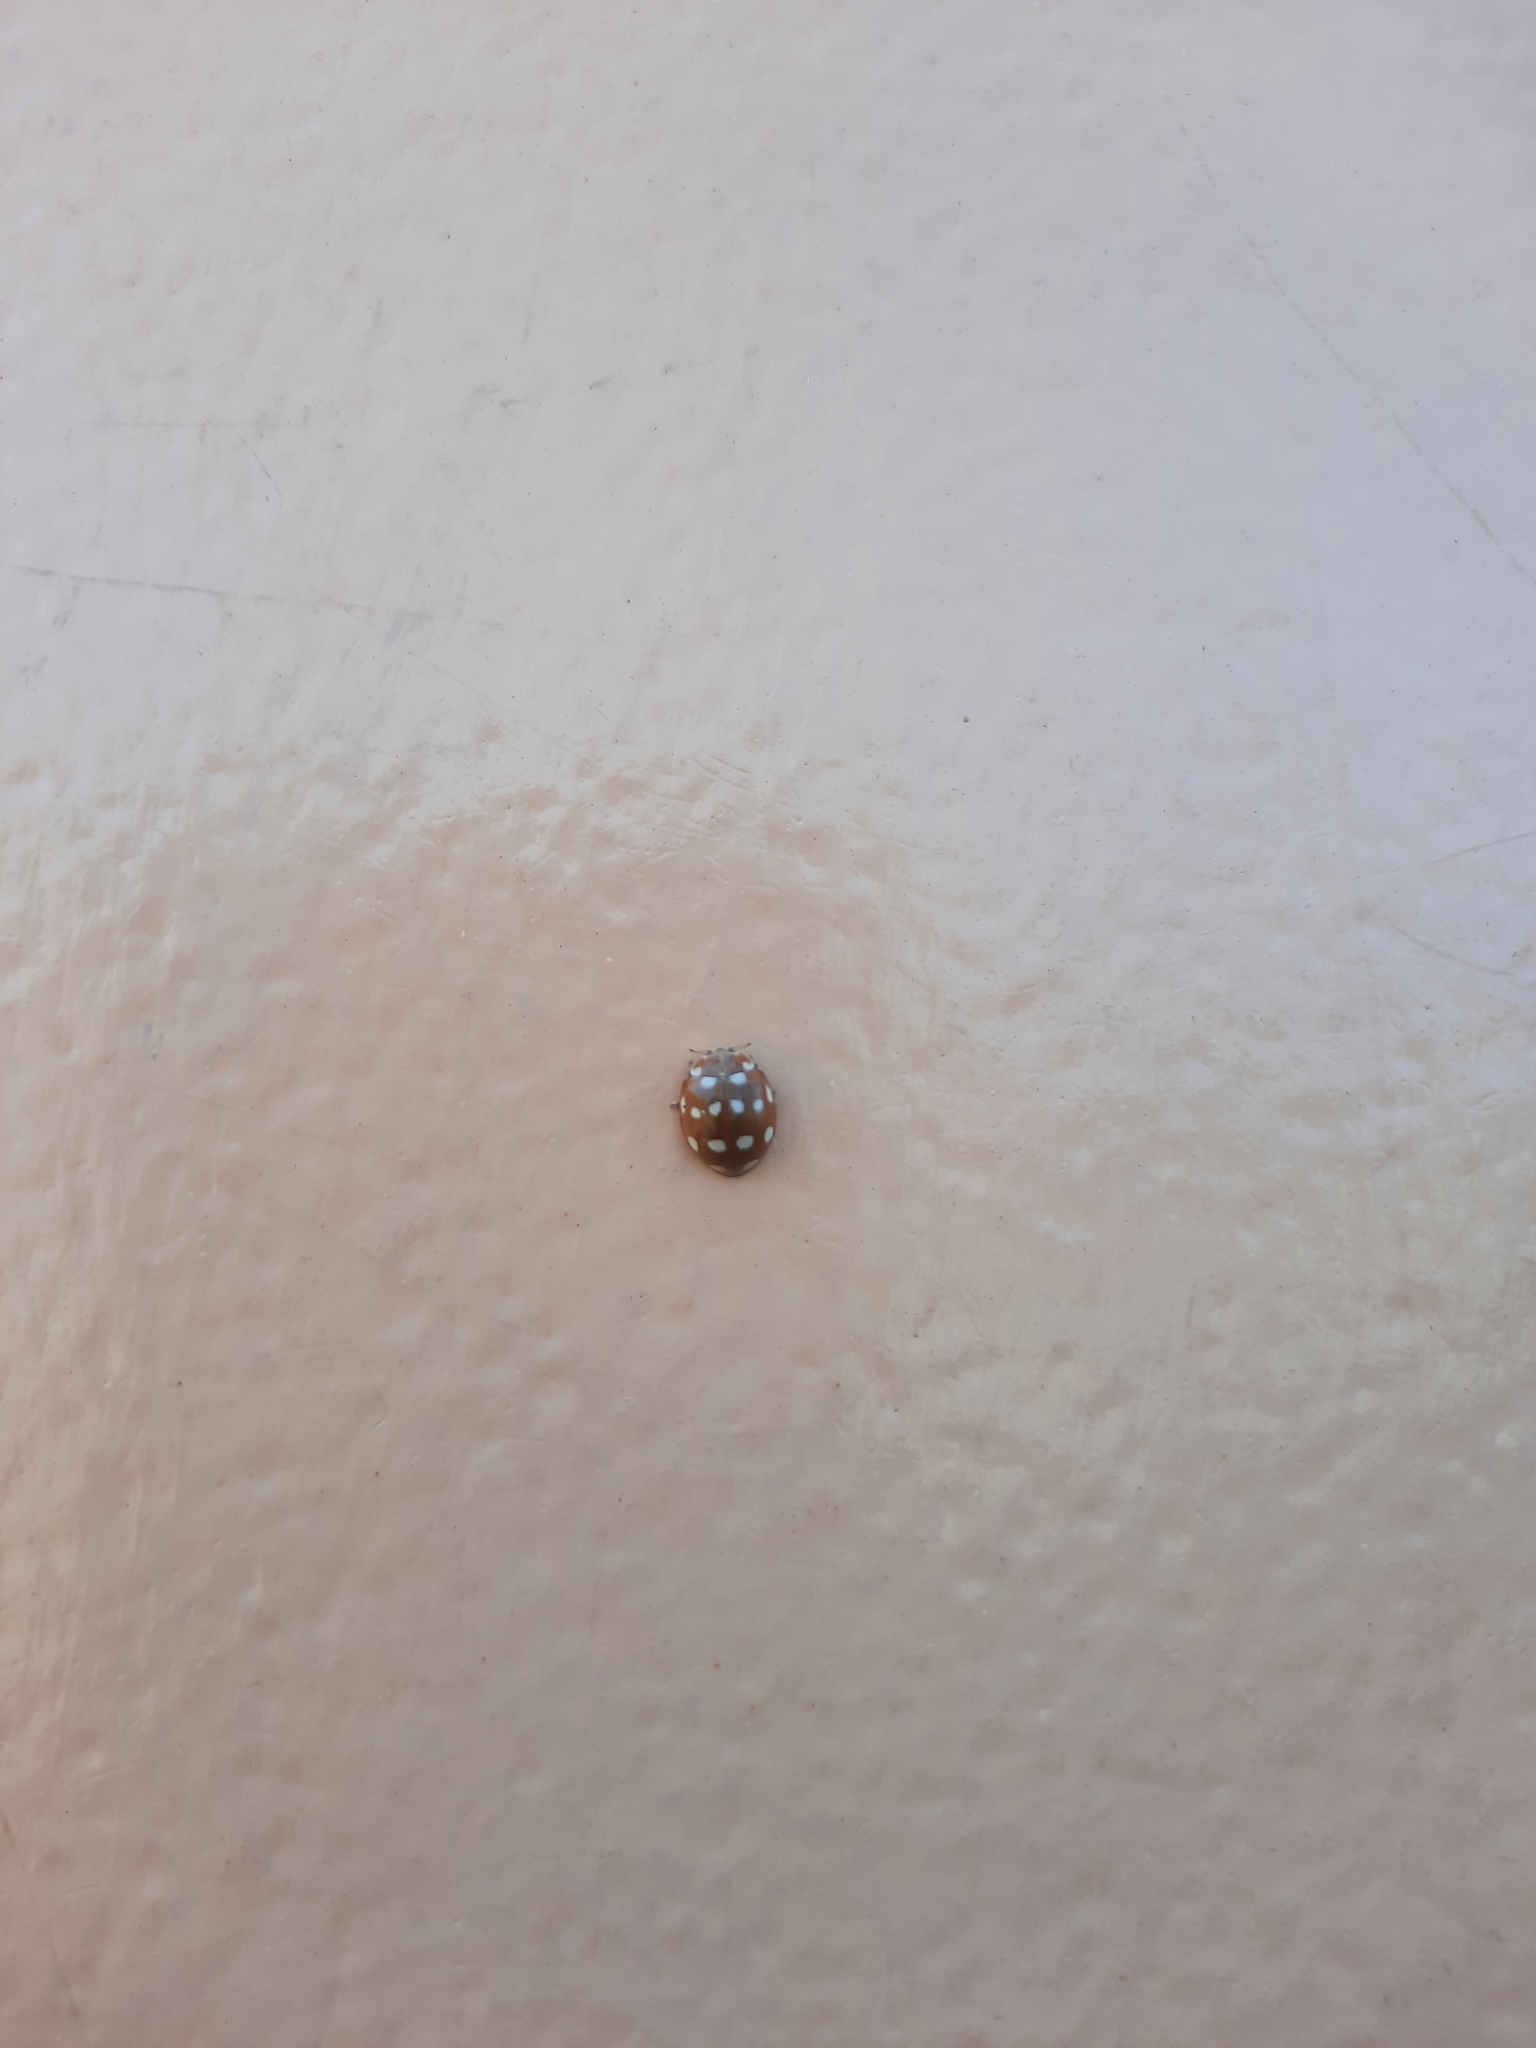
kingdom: Animalia
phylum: Arthropoda
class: Insecta
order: Coleoptera
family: Coccinellidae
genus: Calvia
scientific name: Calvia quatuordecimguttata
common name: Cream-spot ladybird
